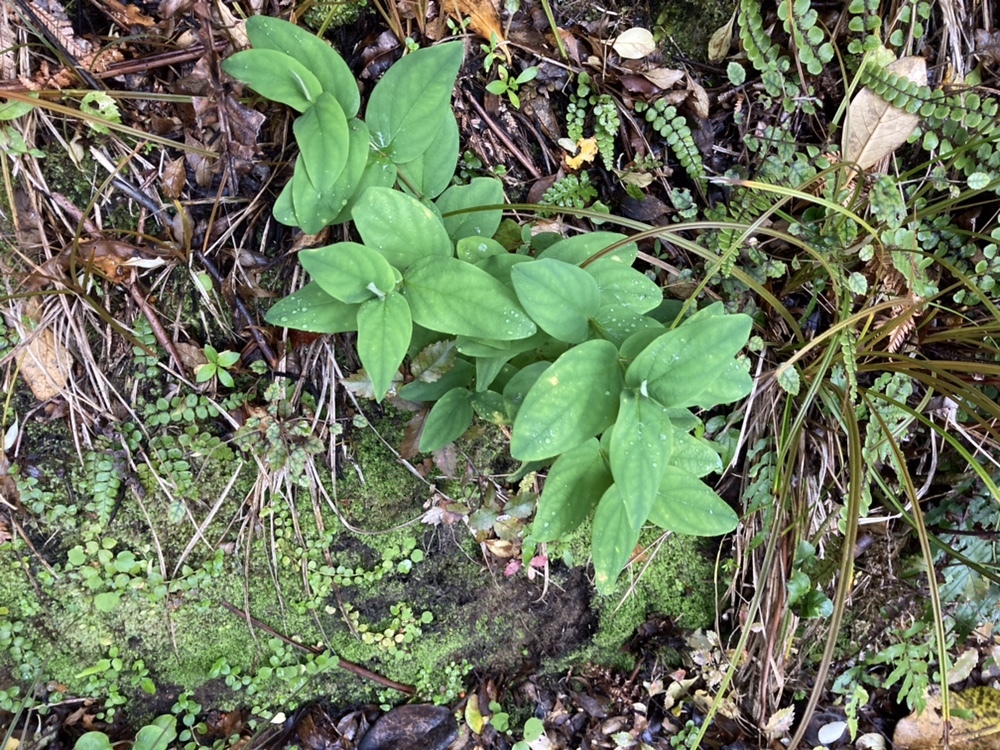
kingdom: Plantae
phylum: Tracheophyta
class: Magnoliopsida
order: Malpighiales
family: Hypericaceae
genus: Hypericum
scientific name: Hypericum androsaemum
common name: Sweet-amber
